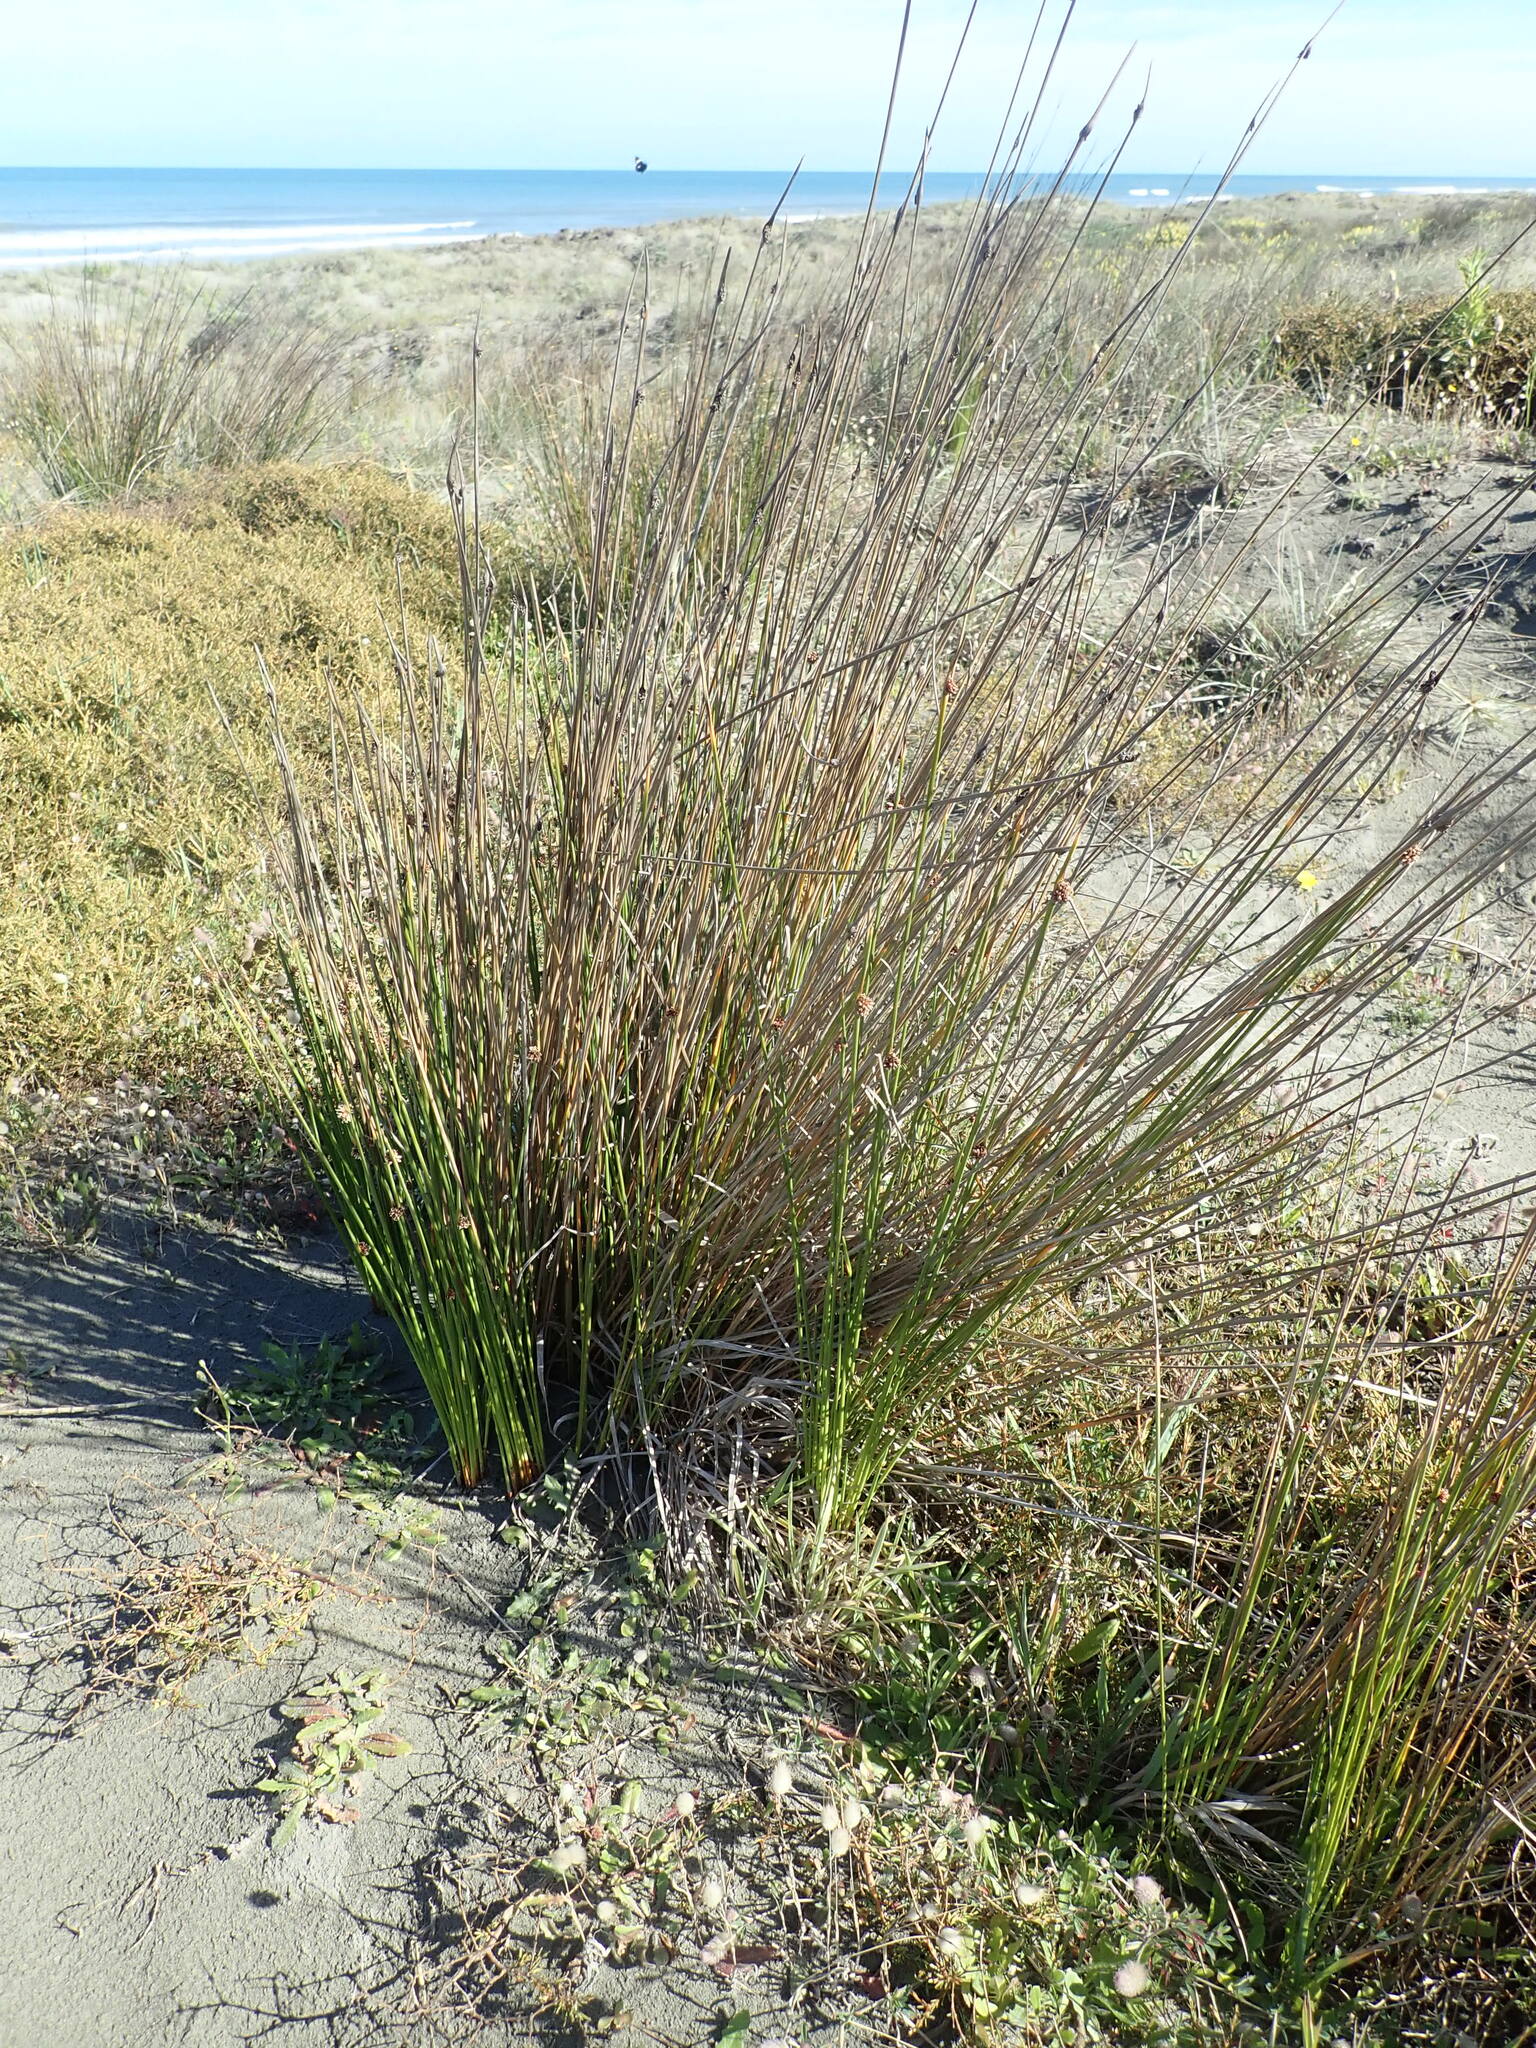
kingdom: Plantae
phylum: Tracheophyta
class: Liliopsida
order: Poales
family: Cyperaceae
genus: Ficinia
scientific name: Ficinia nodosa
